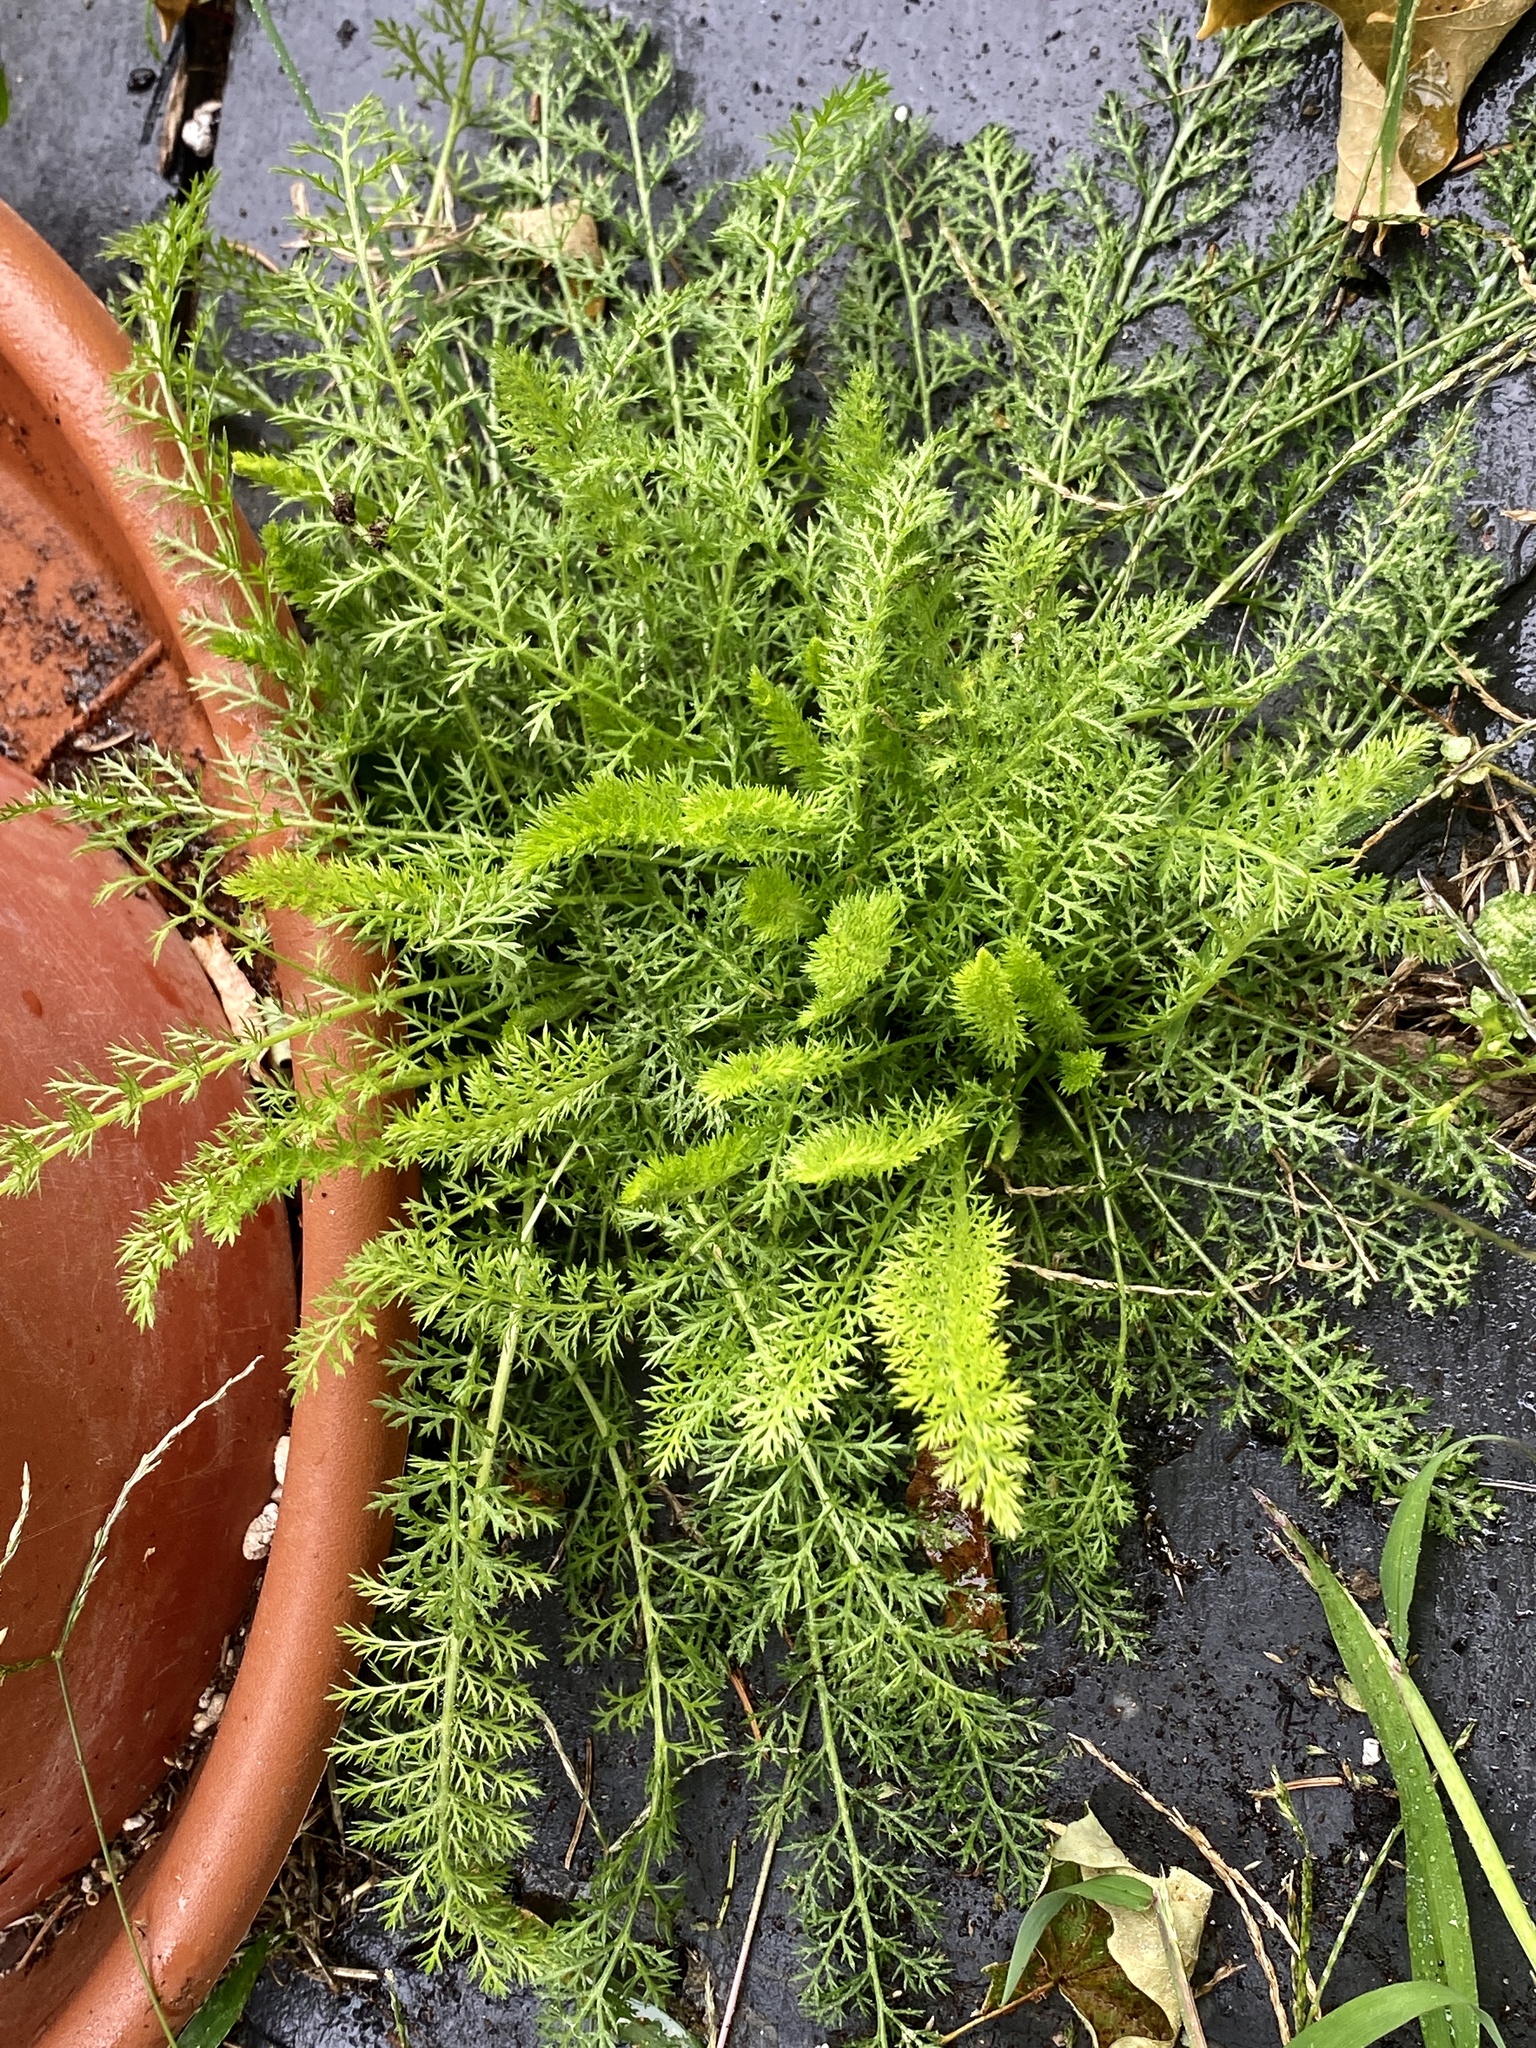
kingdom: Plantae
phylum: Tracheophyta
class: Magnoliopsida
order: Asterales
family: Asteraceae
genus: Achillea
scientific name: Achillea millefolium
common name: Yarrow
